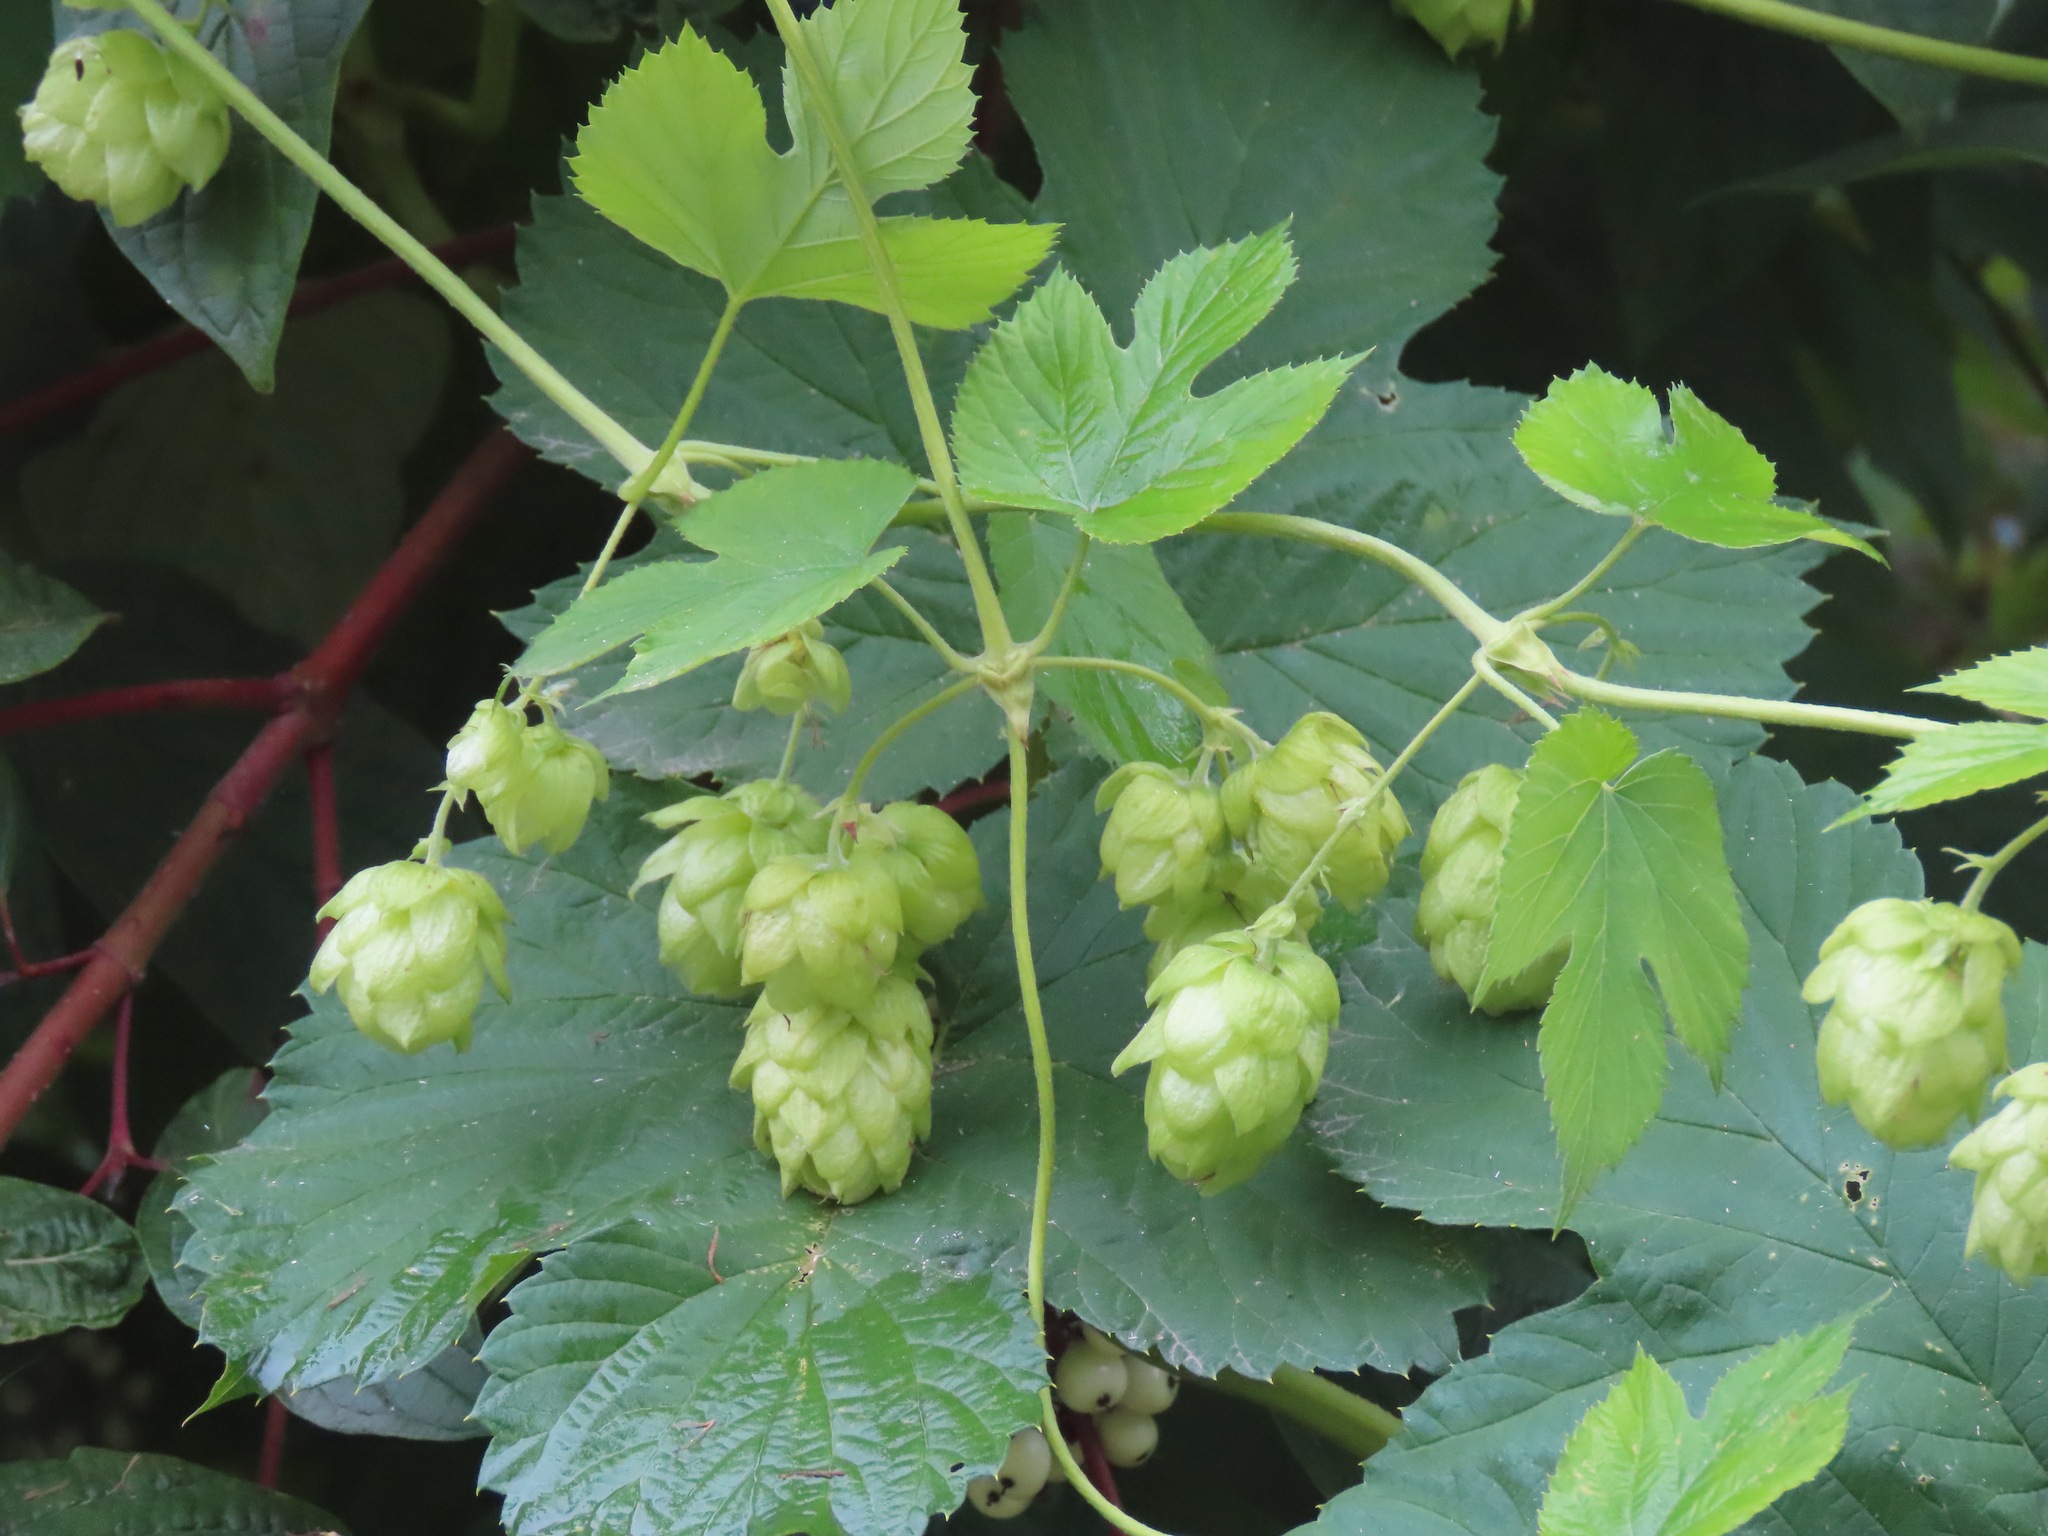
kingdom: Plantae
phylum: Tracheophyta
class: Magnoliopsida
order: Rosales
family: Cannabaceae
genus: Humulus
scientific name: Humulus lupulus
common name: Hop
